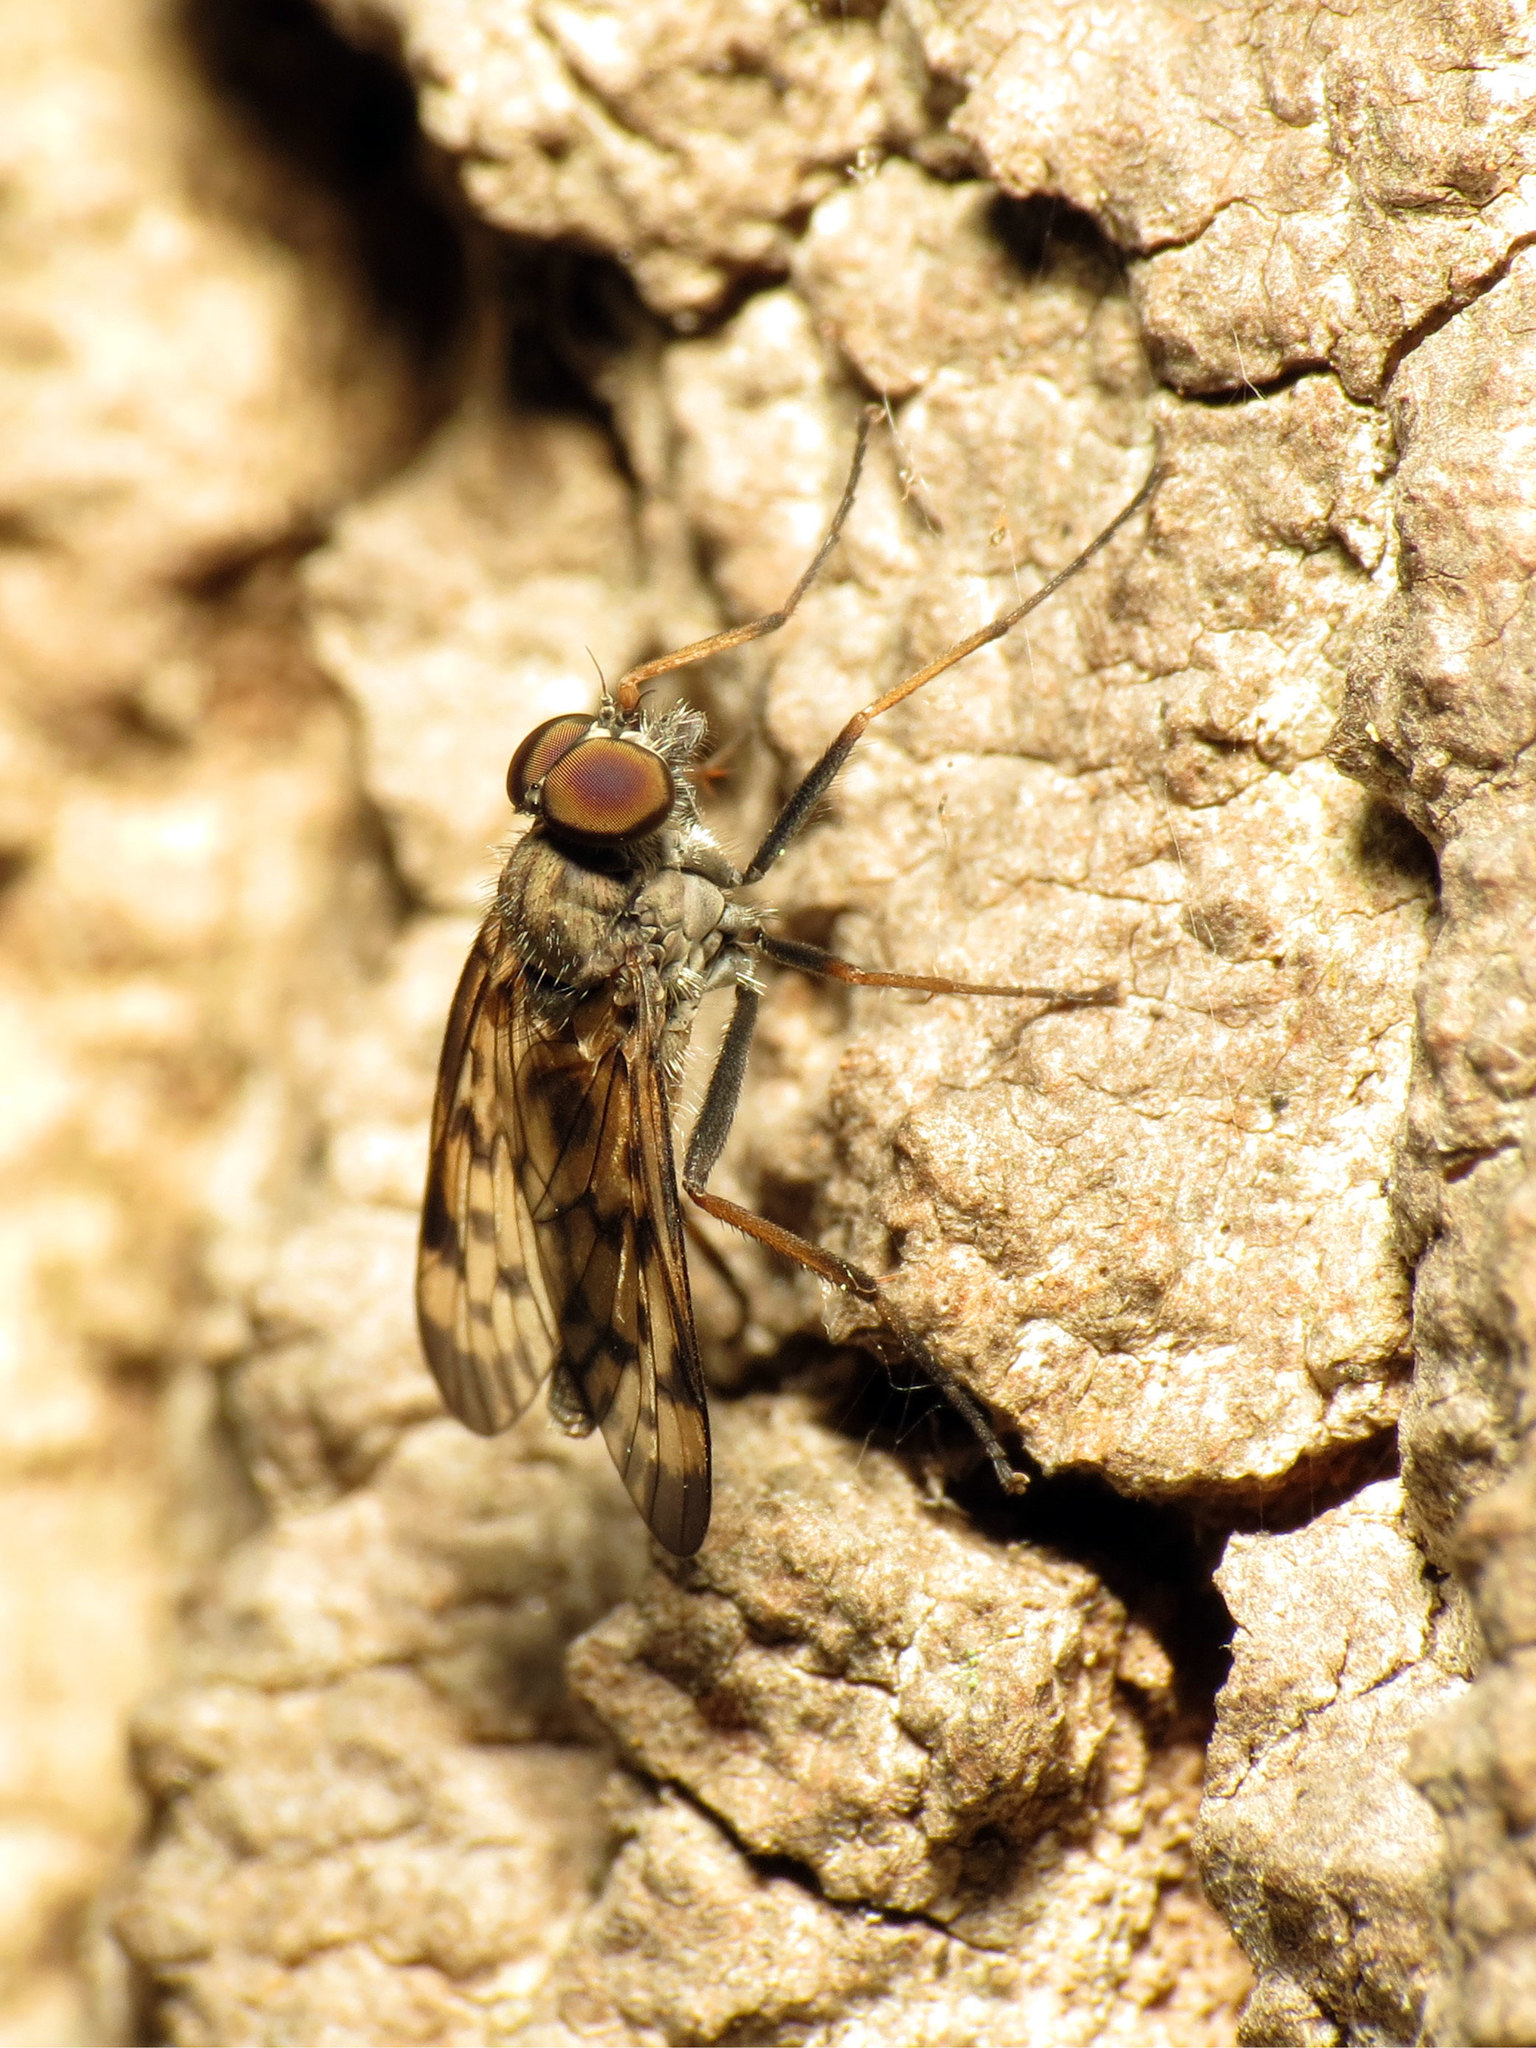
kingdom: Animalia
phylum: Arthropoda
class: Insecta
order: Diptera
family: Rhagionidae
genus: Rhagio
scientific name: Rhagio punctipennis
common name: Lesser variegated snipe fly
